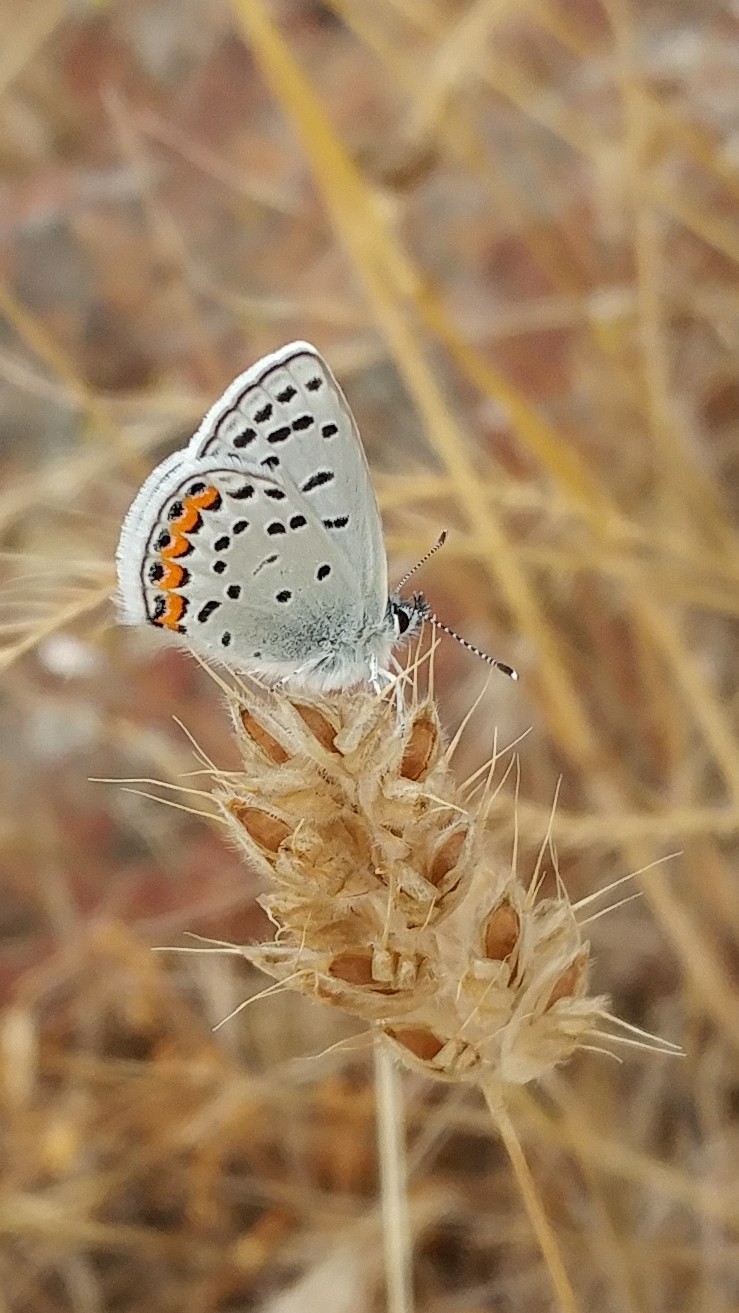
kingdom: Animalia
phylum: Arthropoda
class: Insecta
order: Lepidoptera
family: Lycaenidae
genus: Icaricia
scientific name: Icaricia acmon
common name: Acmon blue
